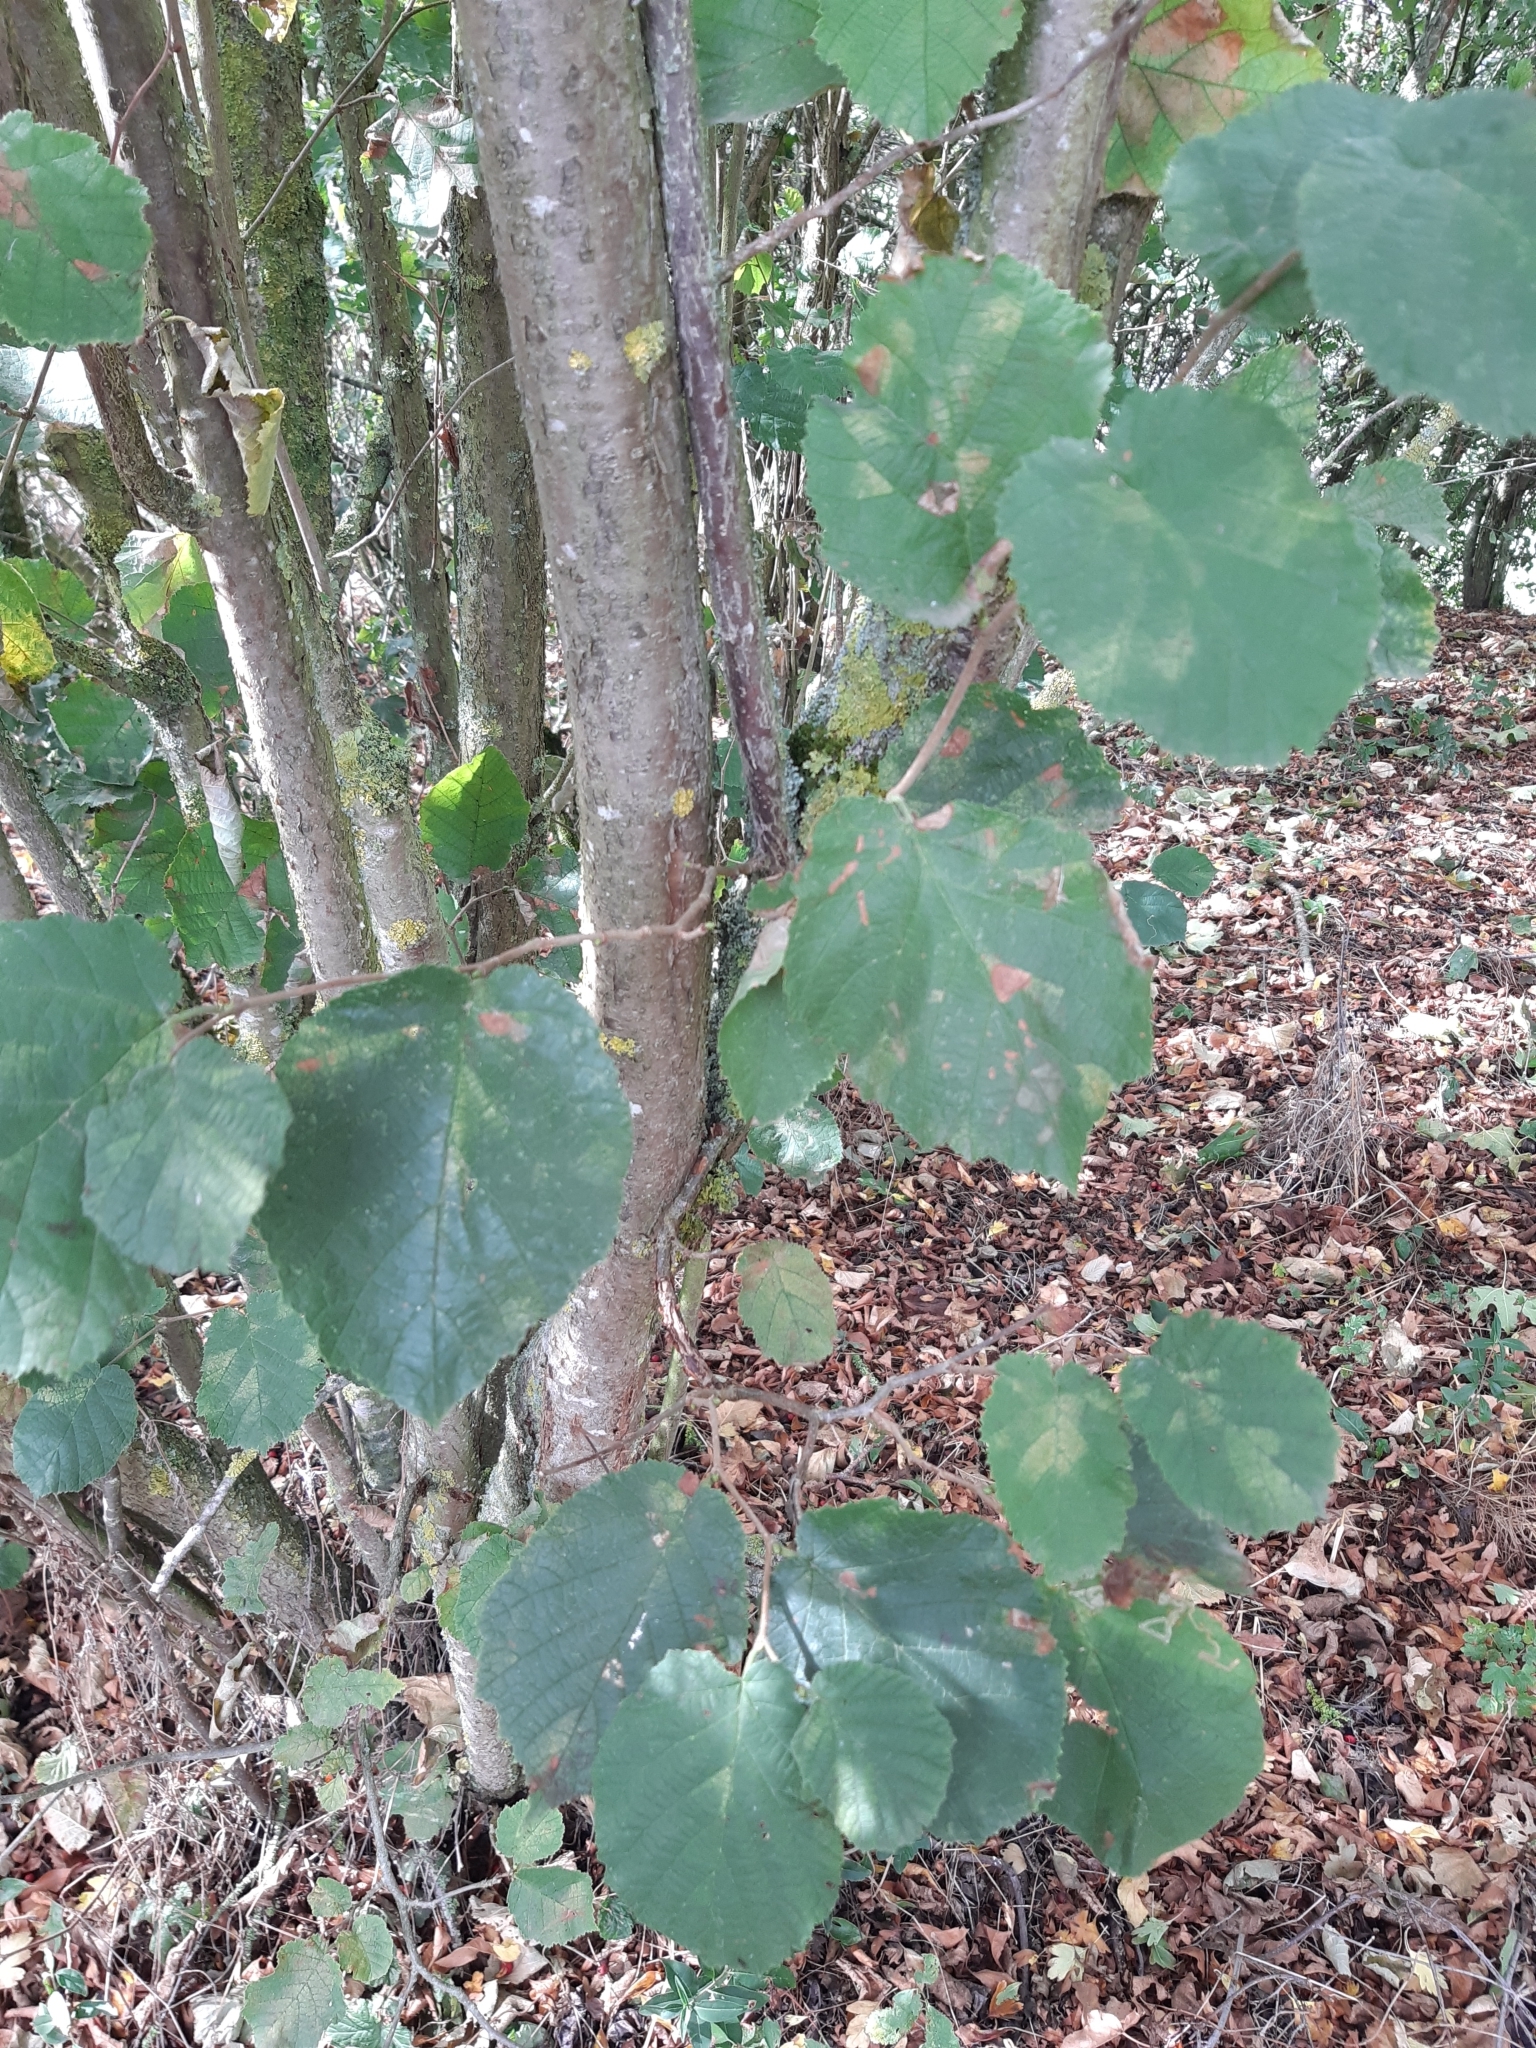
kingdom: Plantae
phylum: Tracheophyta
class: Magnoliopsida
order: Fagales
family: Betulaceae
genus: Corylus
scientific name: Corylus avellana
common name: European hazel
